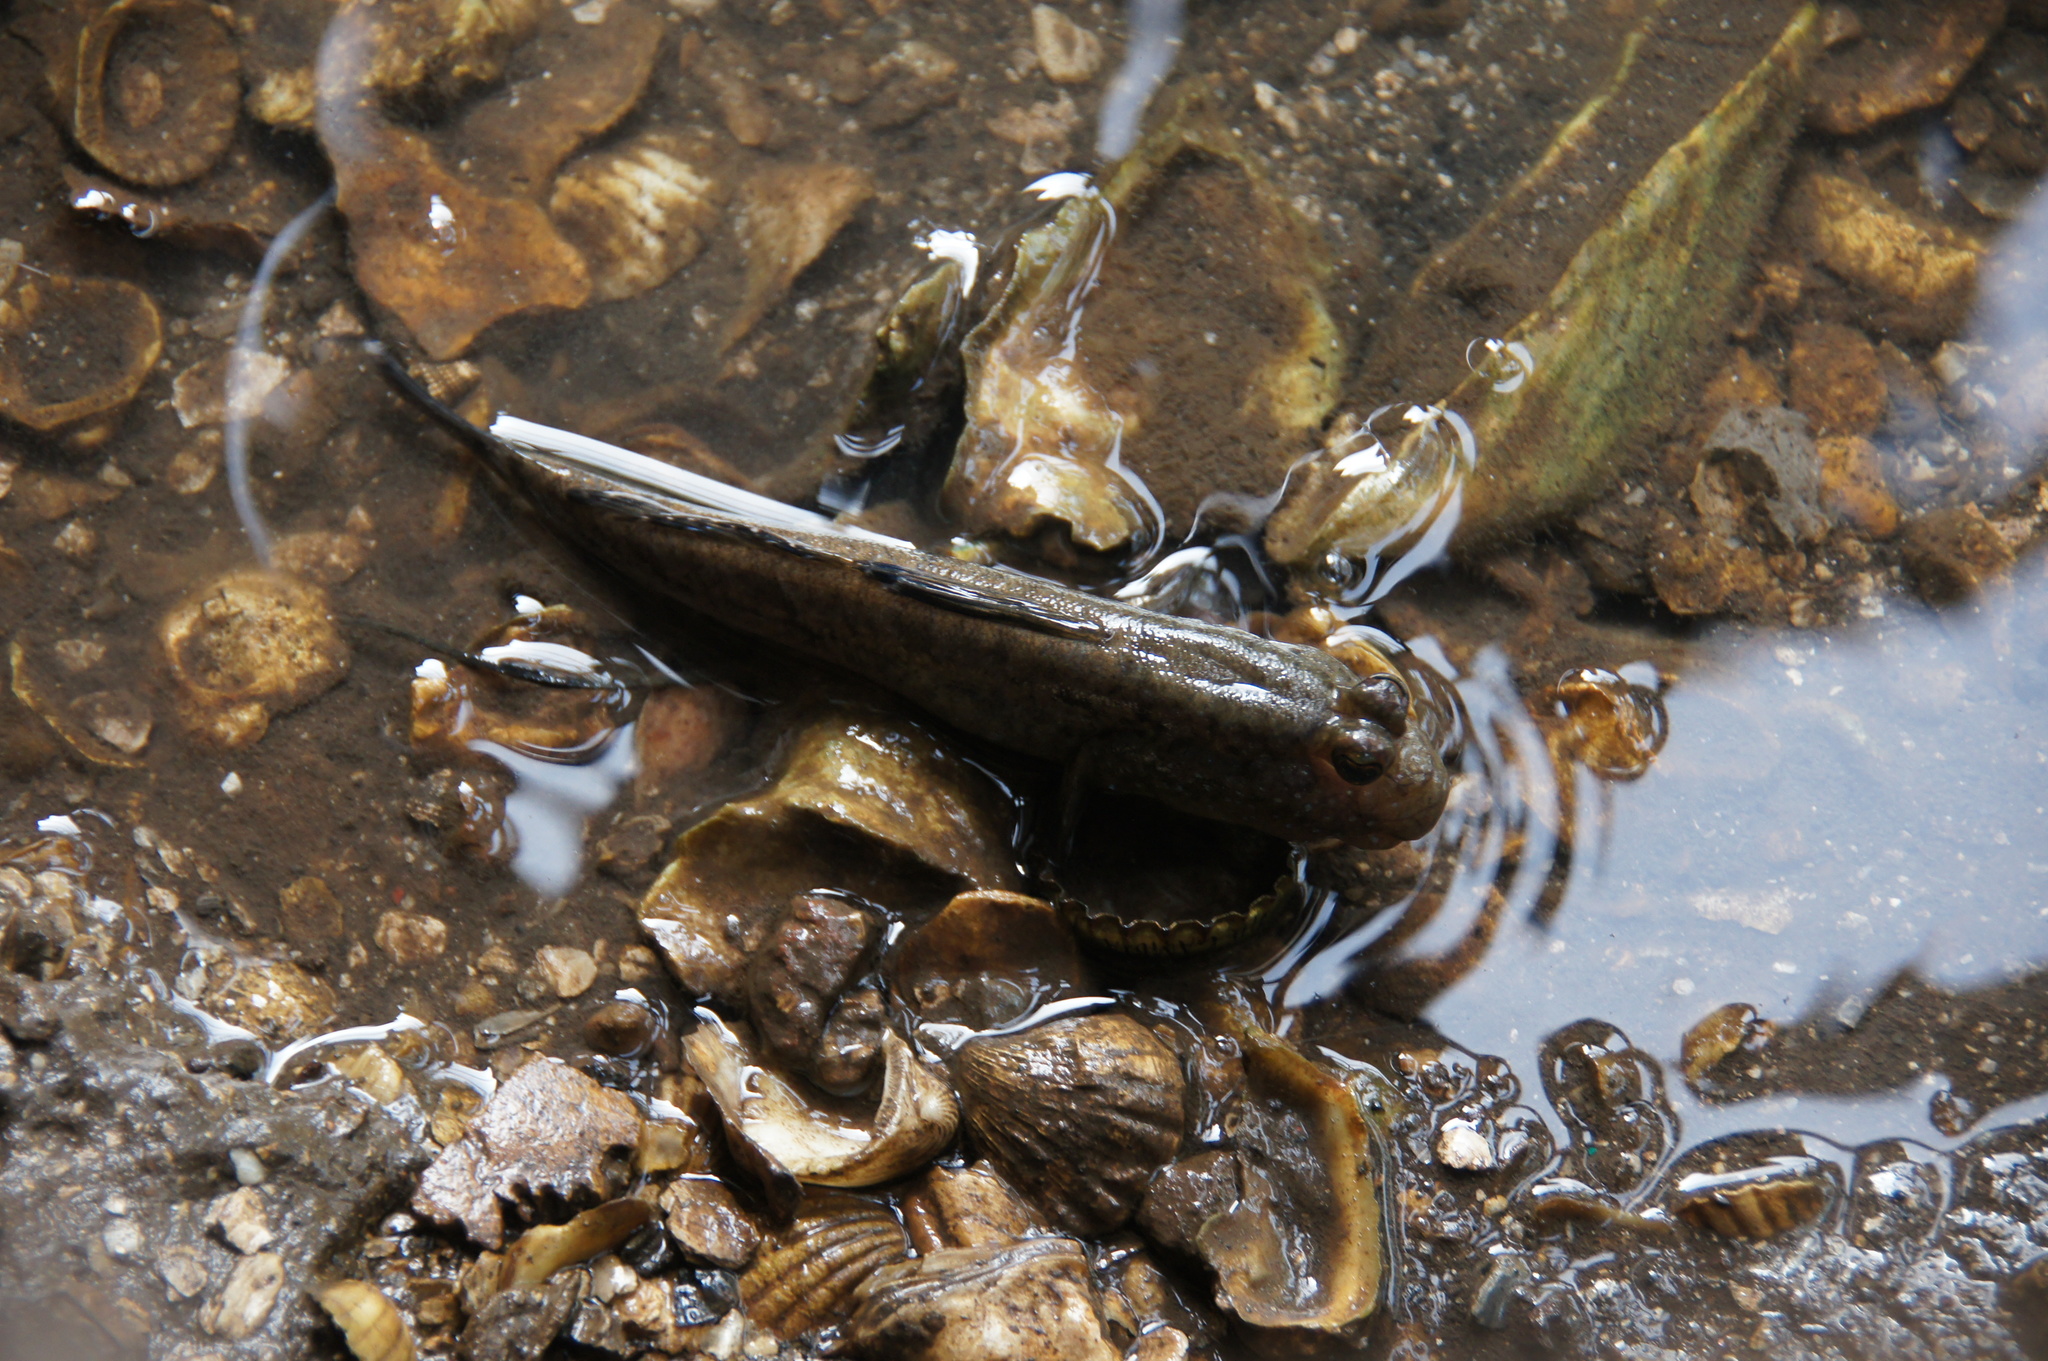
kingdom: Animalia
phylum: Chordata
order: Perciformes
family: Gobiidae
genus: Periophthalmus
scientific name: Periophthalmus barbarus
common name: Atlantic mudskipper
